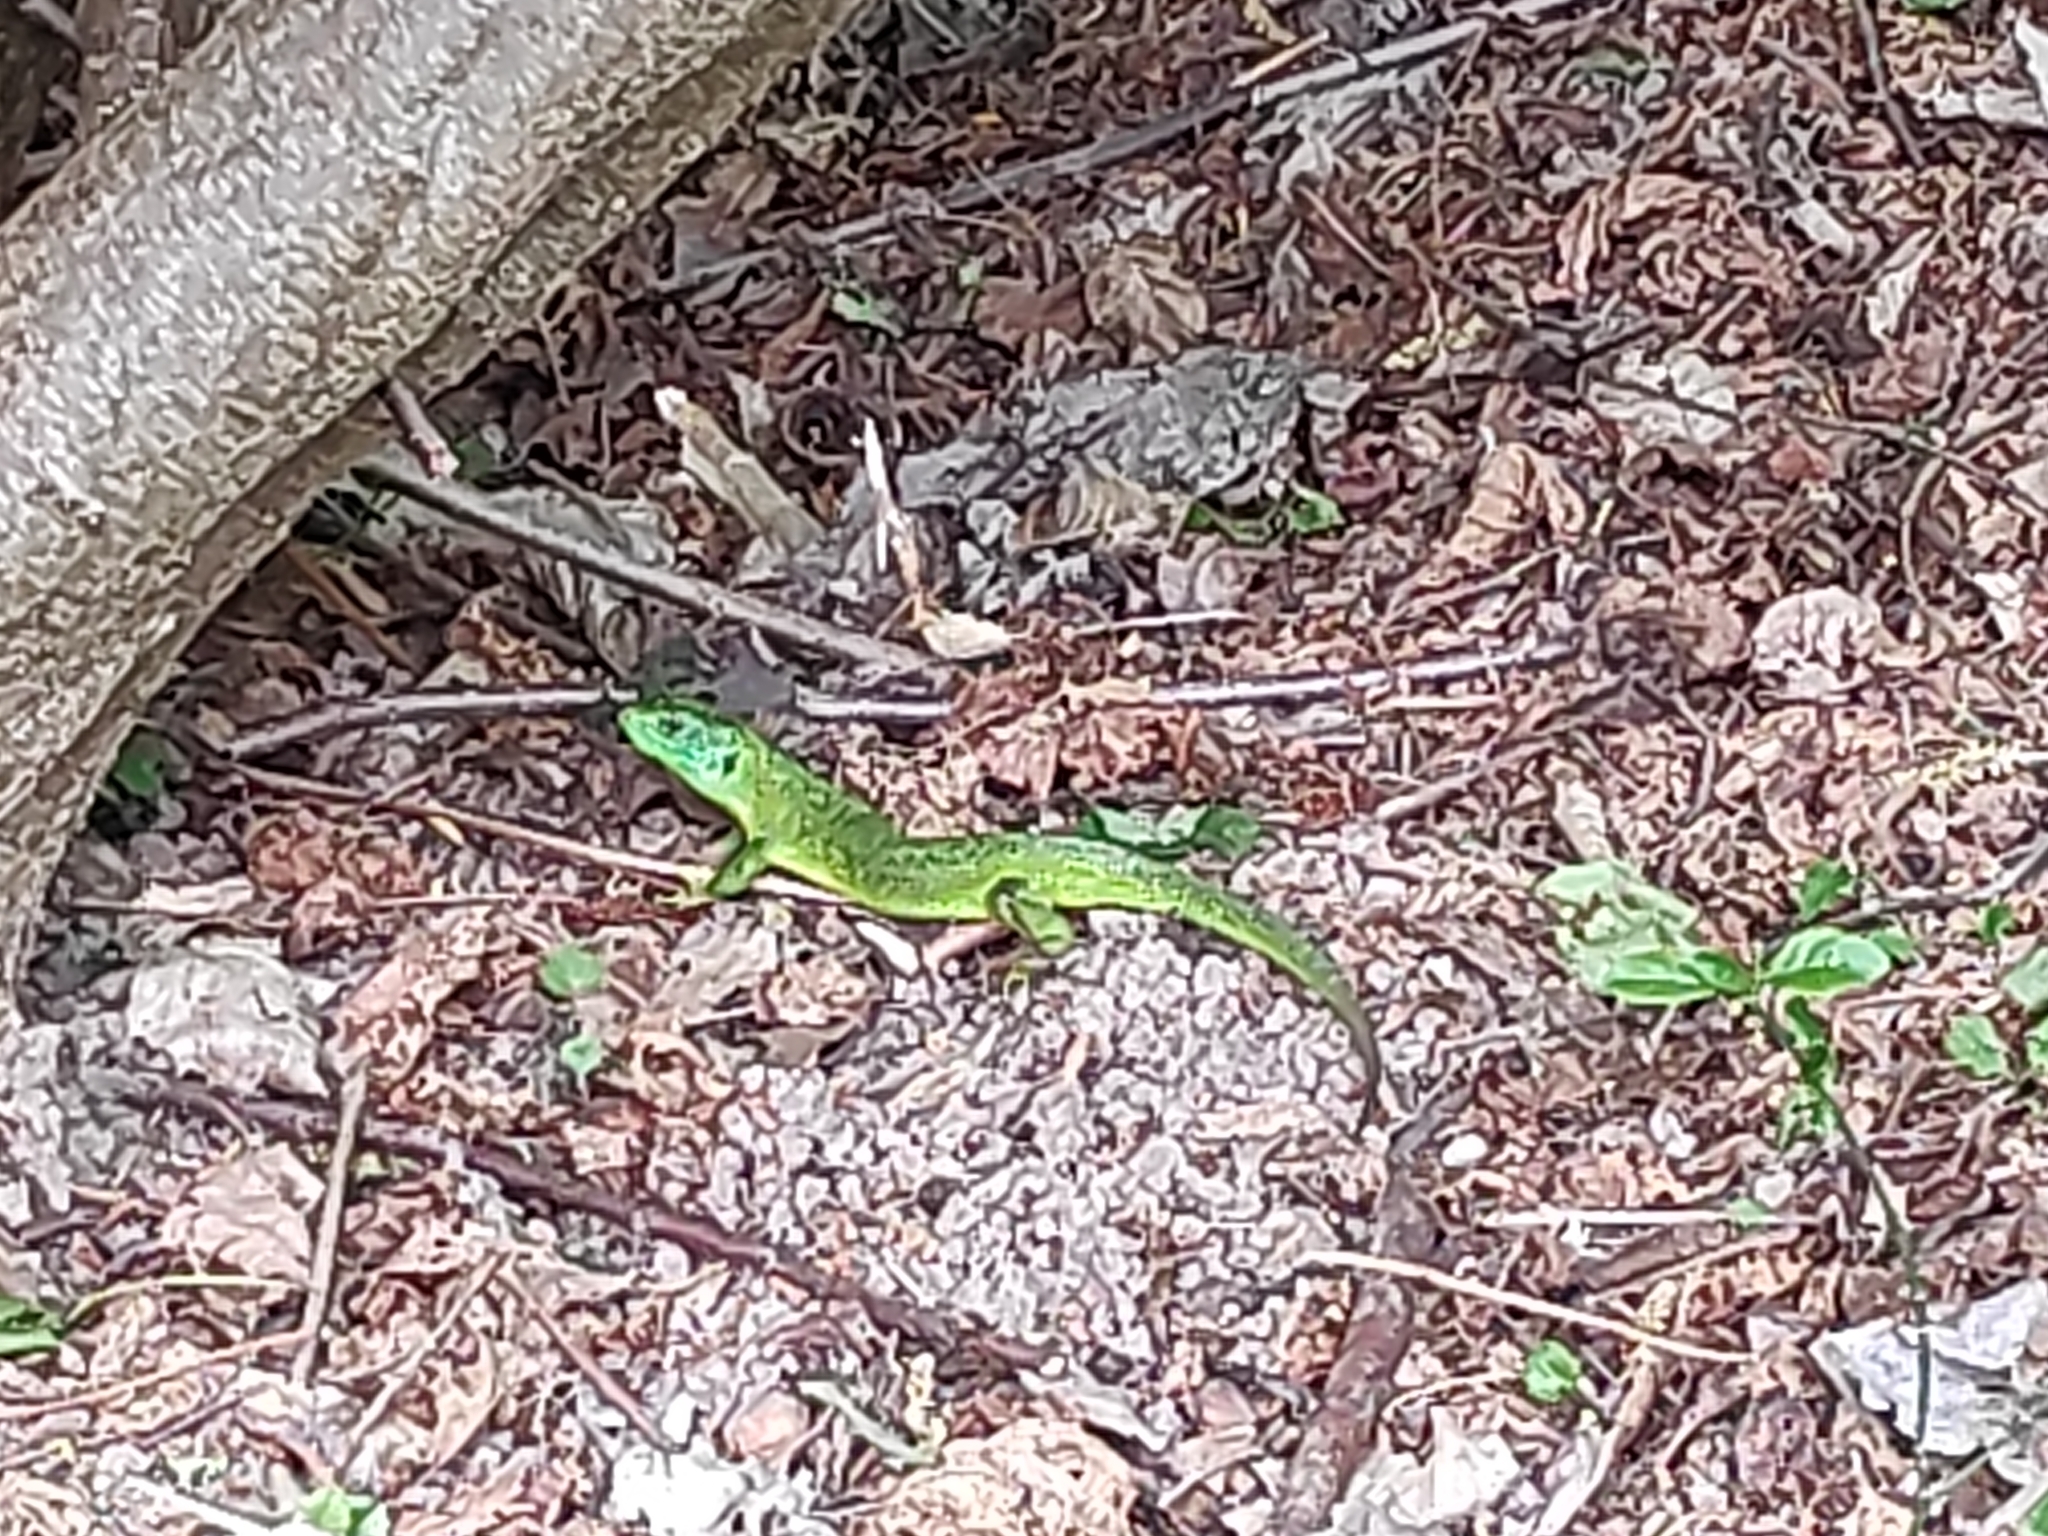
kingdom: Animalia
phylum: Chordata
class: Squamata
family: Lacertidae
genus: Lacerta
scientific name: Lacerta bilineata
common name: Western green lizard
